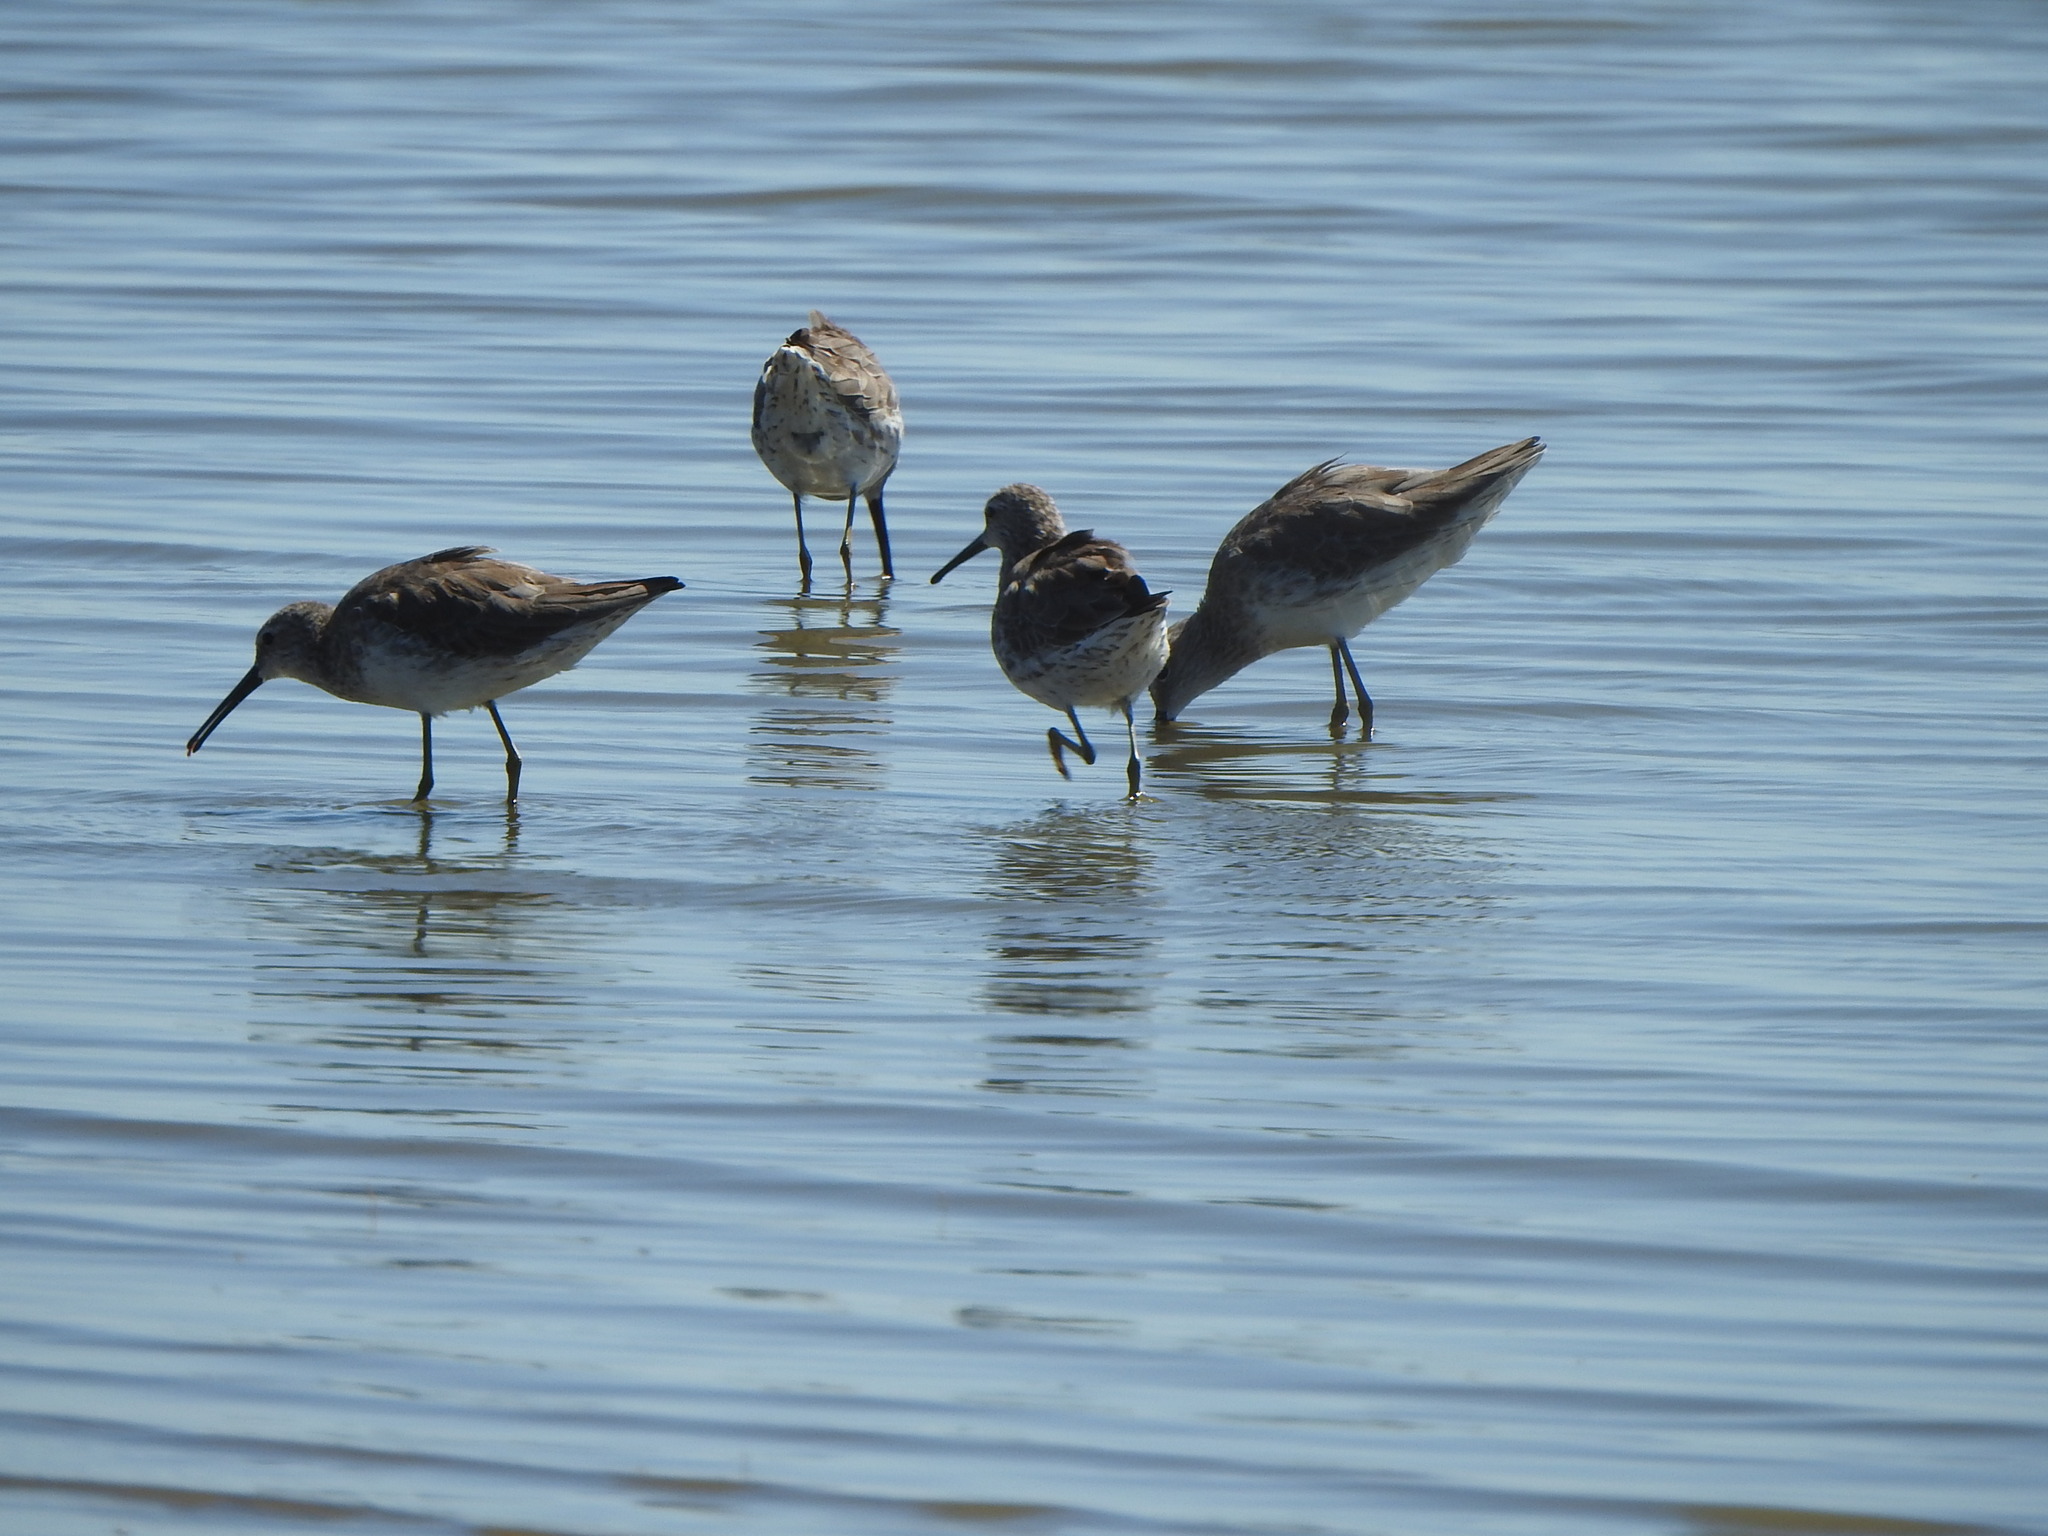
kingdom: Animalia
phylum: Chordata
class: Aves
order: Charadriiformes
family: Scolopacidae
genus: Calidris
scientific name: Calidris himantopus
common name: Stilt sandpiper
